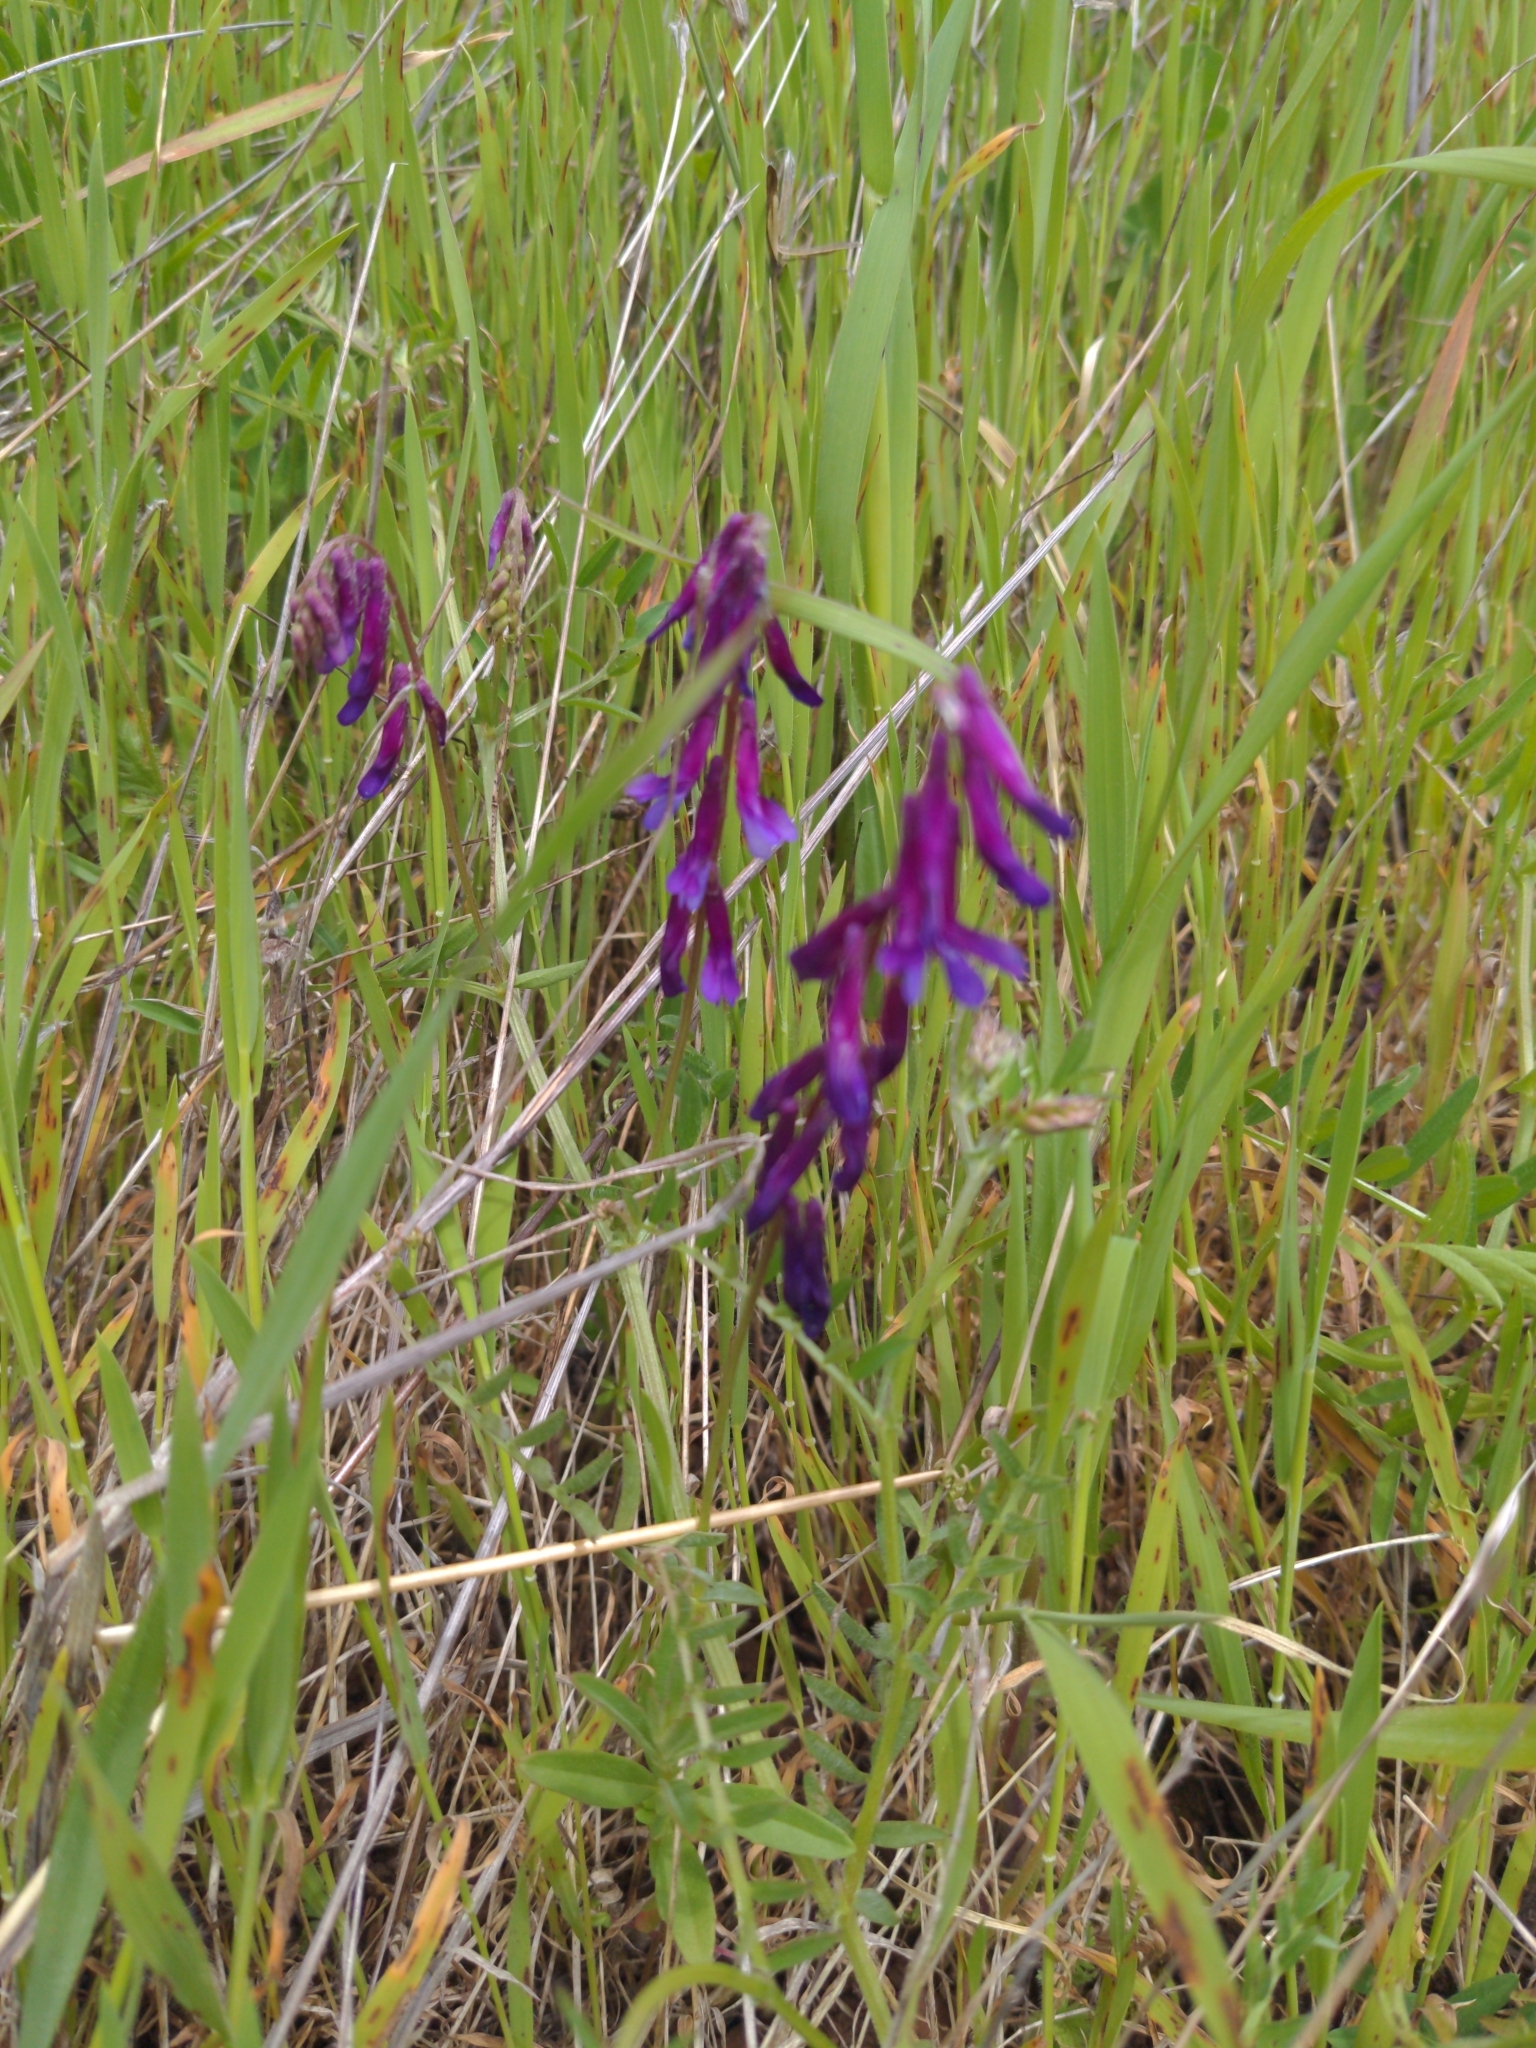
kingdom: Plantae
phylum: Tracheophyta
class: Magnoliopsida
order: Fabales
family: Fabaceae
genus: Vicia
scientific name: Vicia villosa
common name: Fodder vetch
